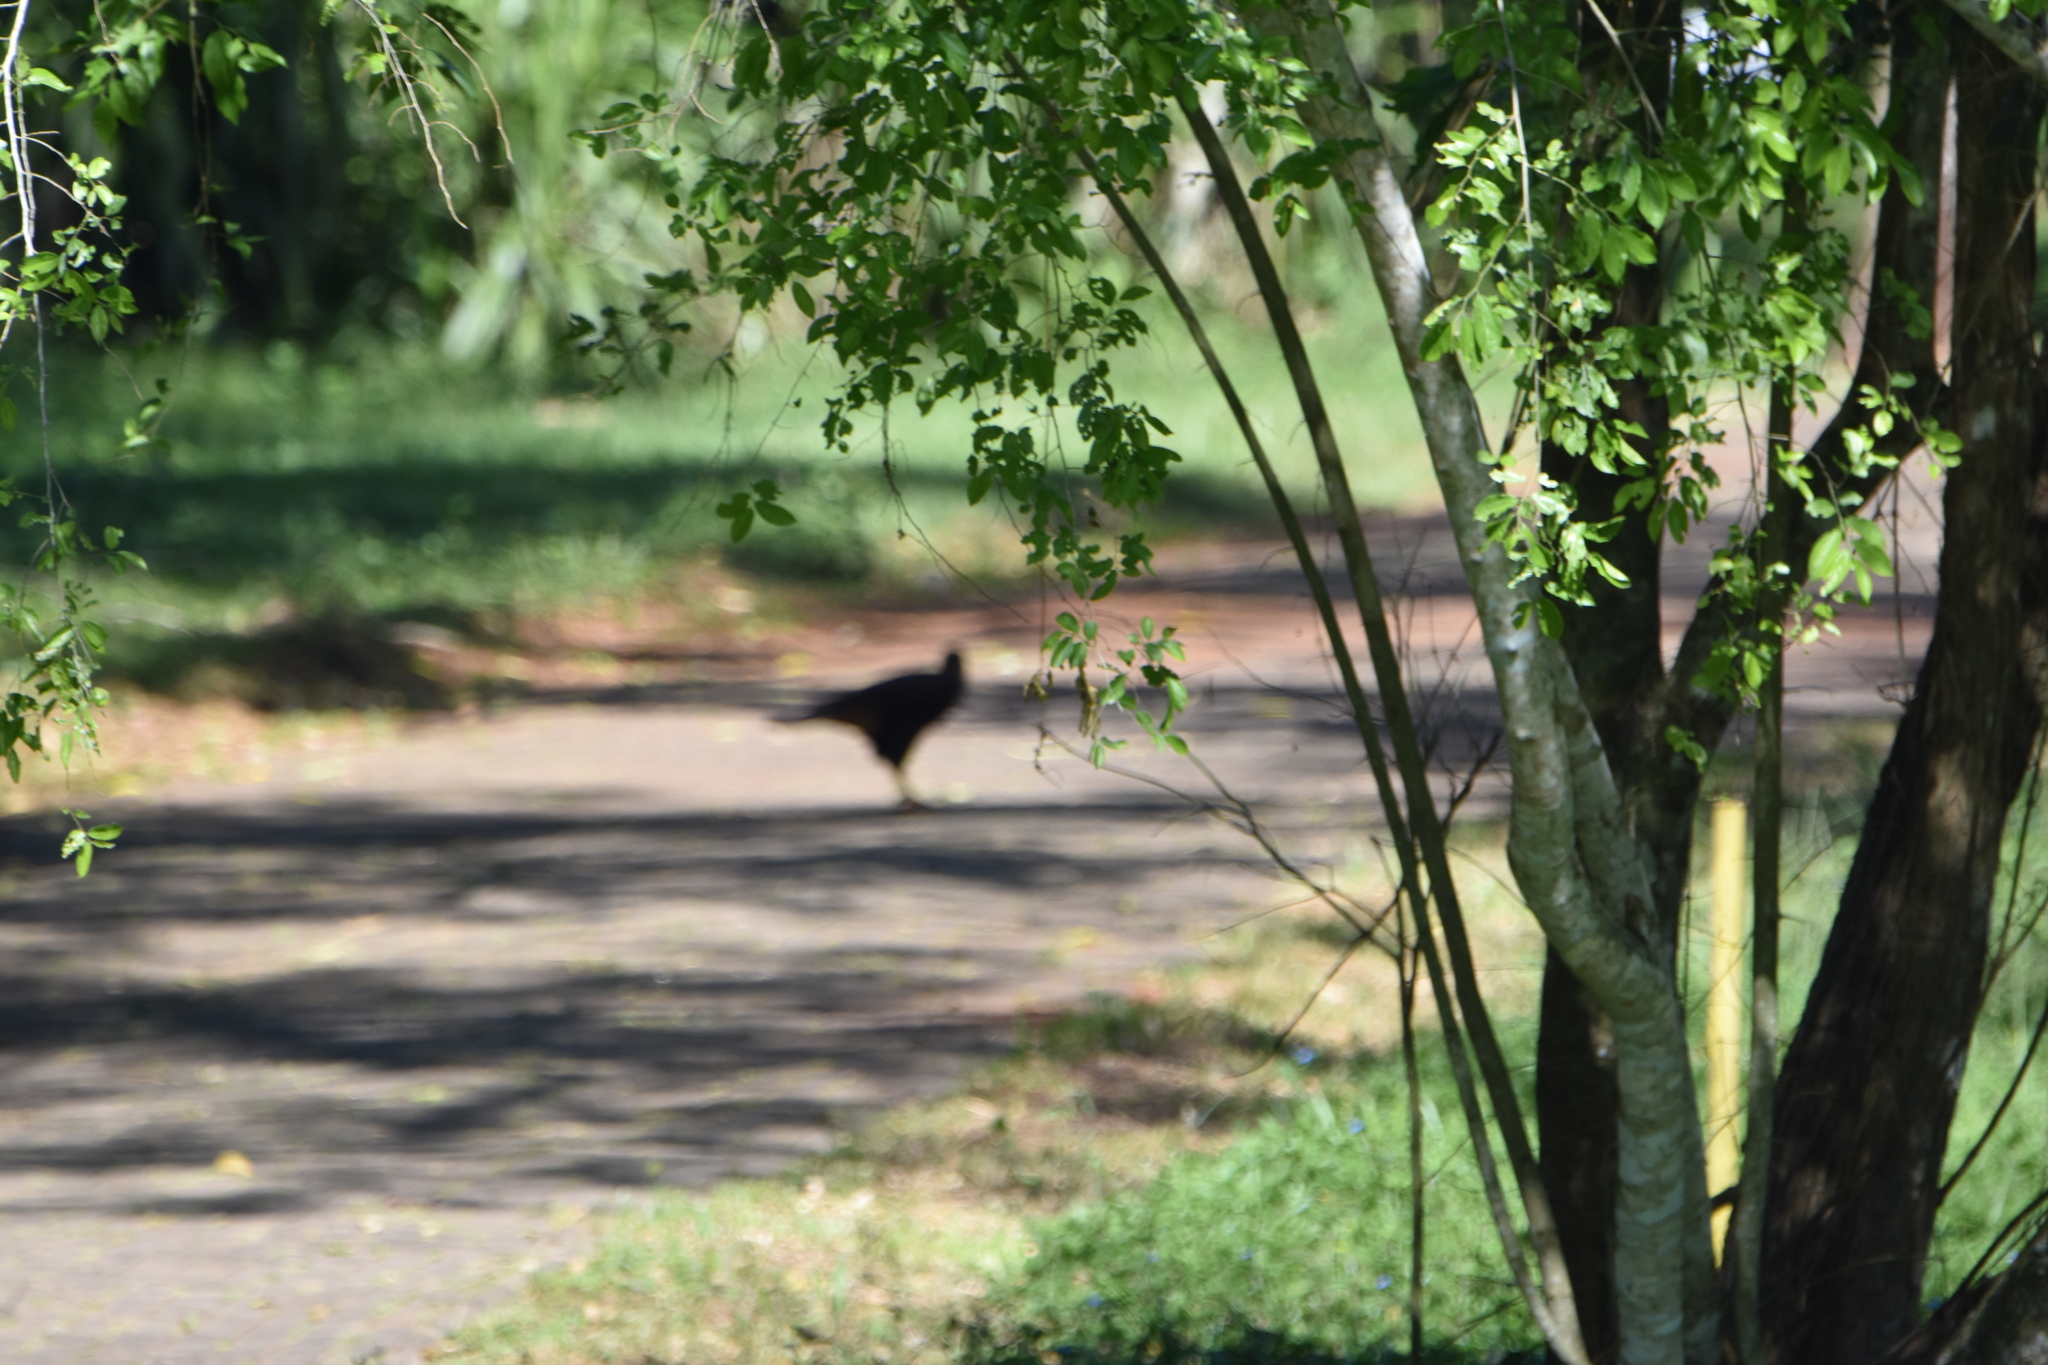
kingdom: Animalia
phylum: Chordata
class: Aves
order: Falconiformes
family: Falconidae
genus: Caracara
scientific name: Caracara plancus
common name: Southern caracara
